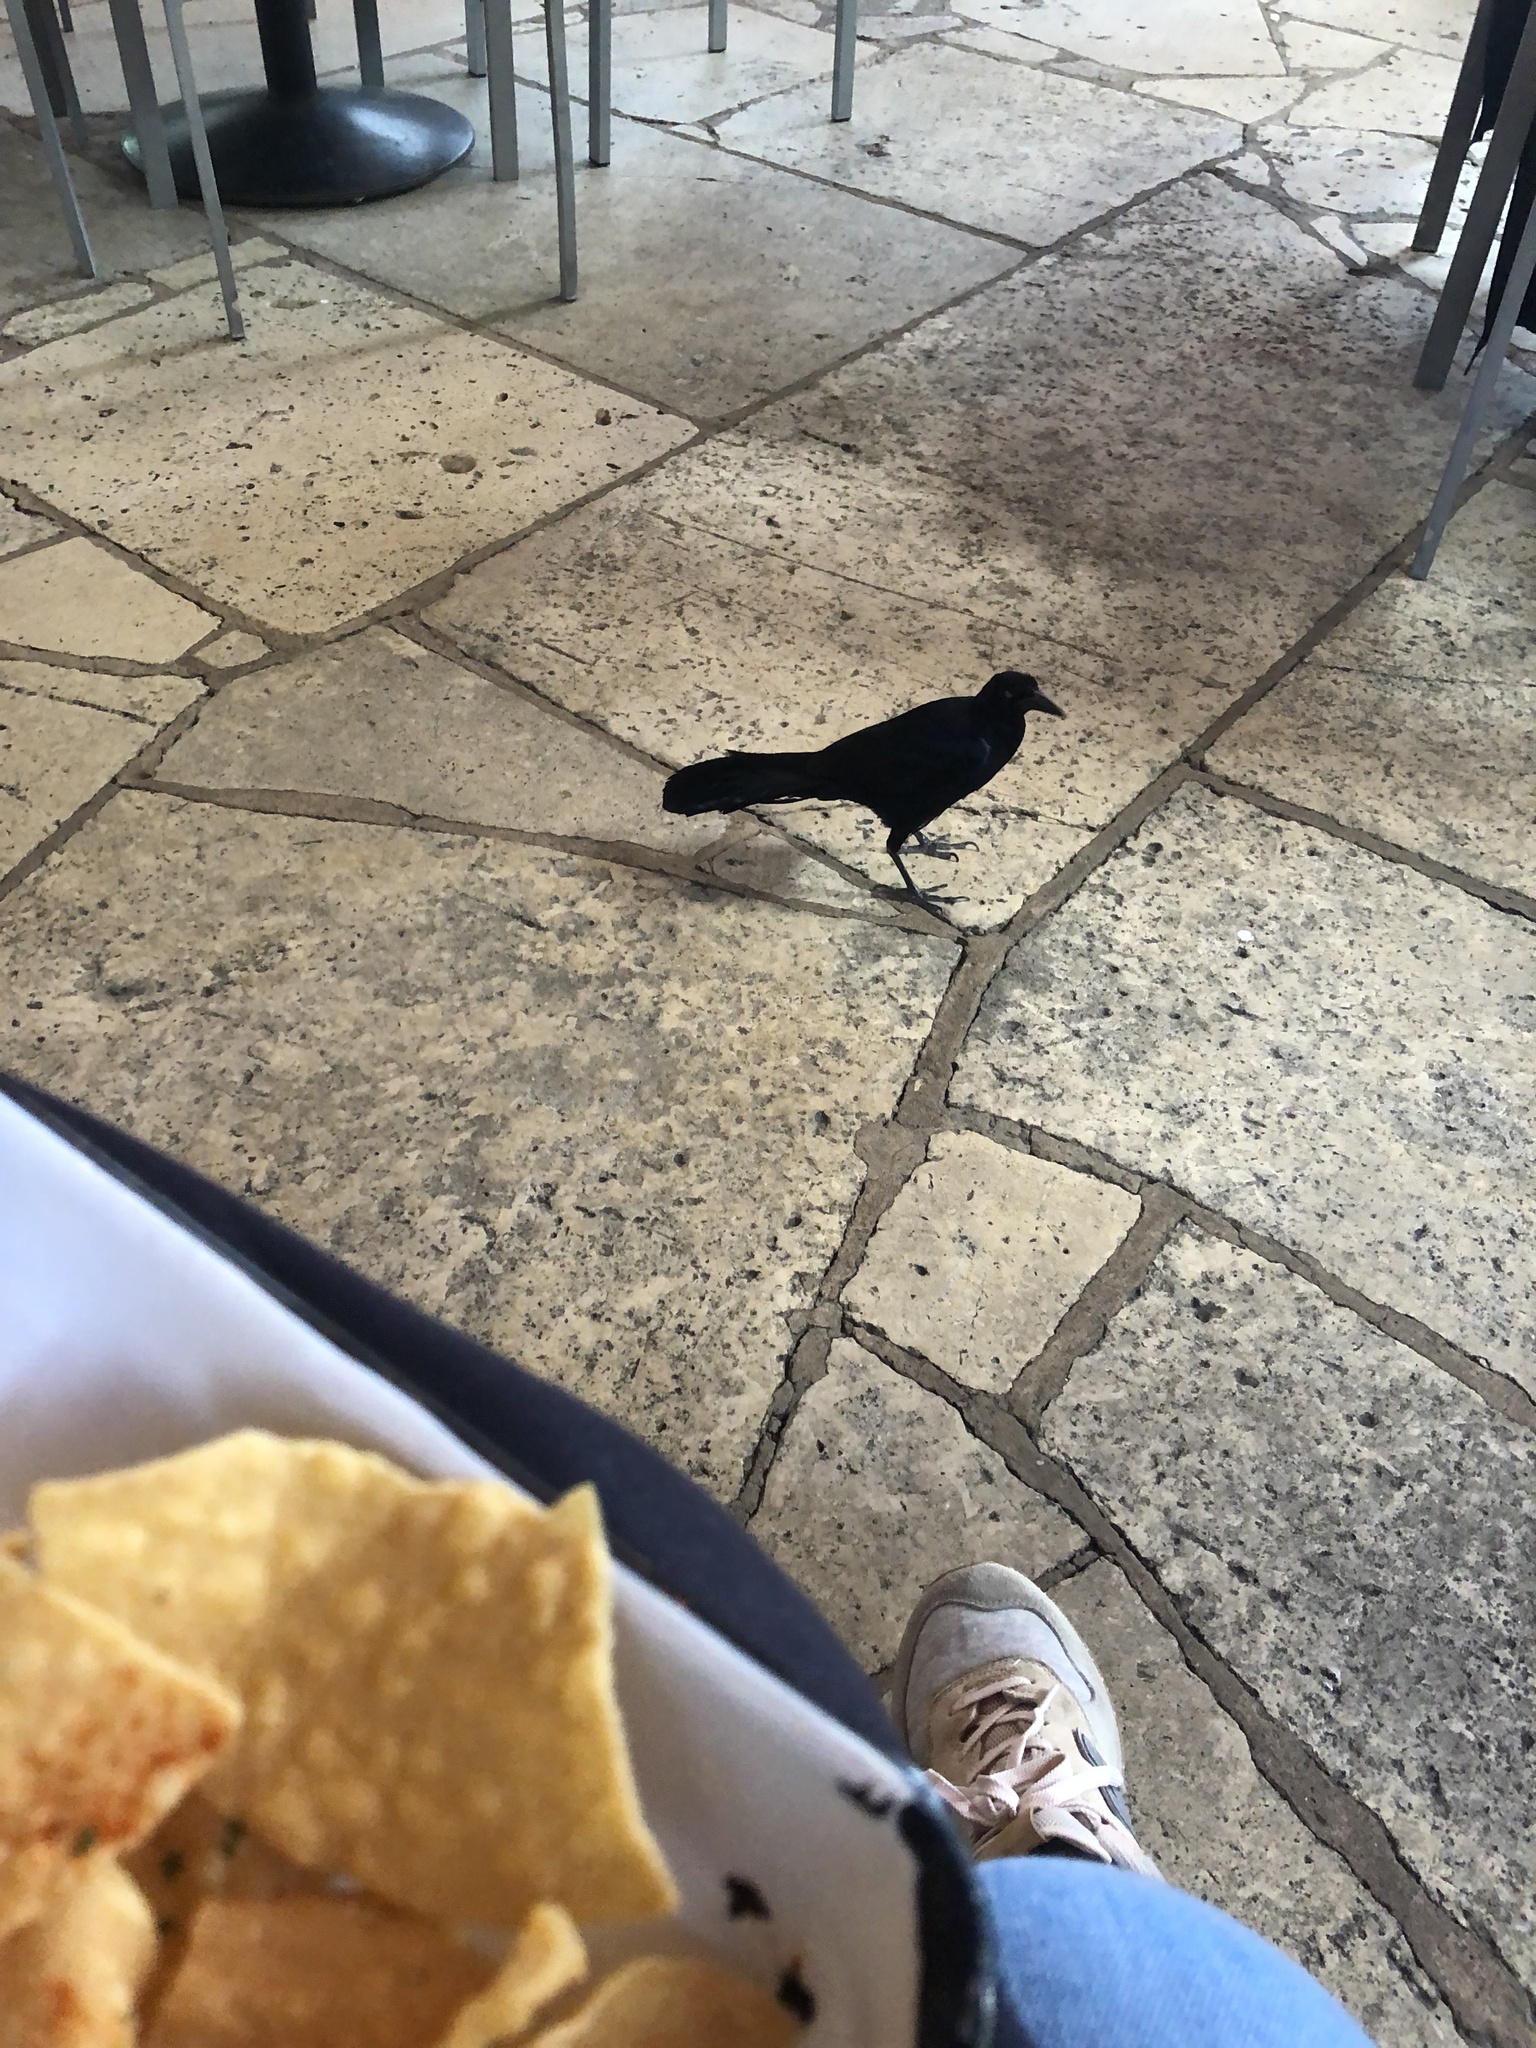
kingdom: Animalia
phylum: Chordata
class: Aves
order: Passeriformes
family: Icteridae
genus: Quiscalus
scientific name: Quiscalus mexicanus
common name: Great-tailed grackle
